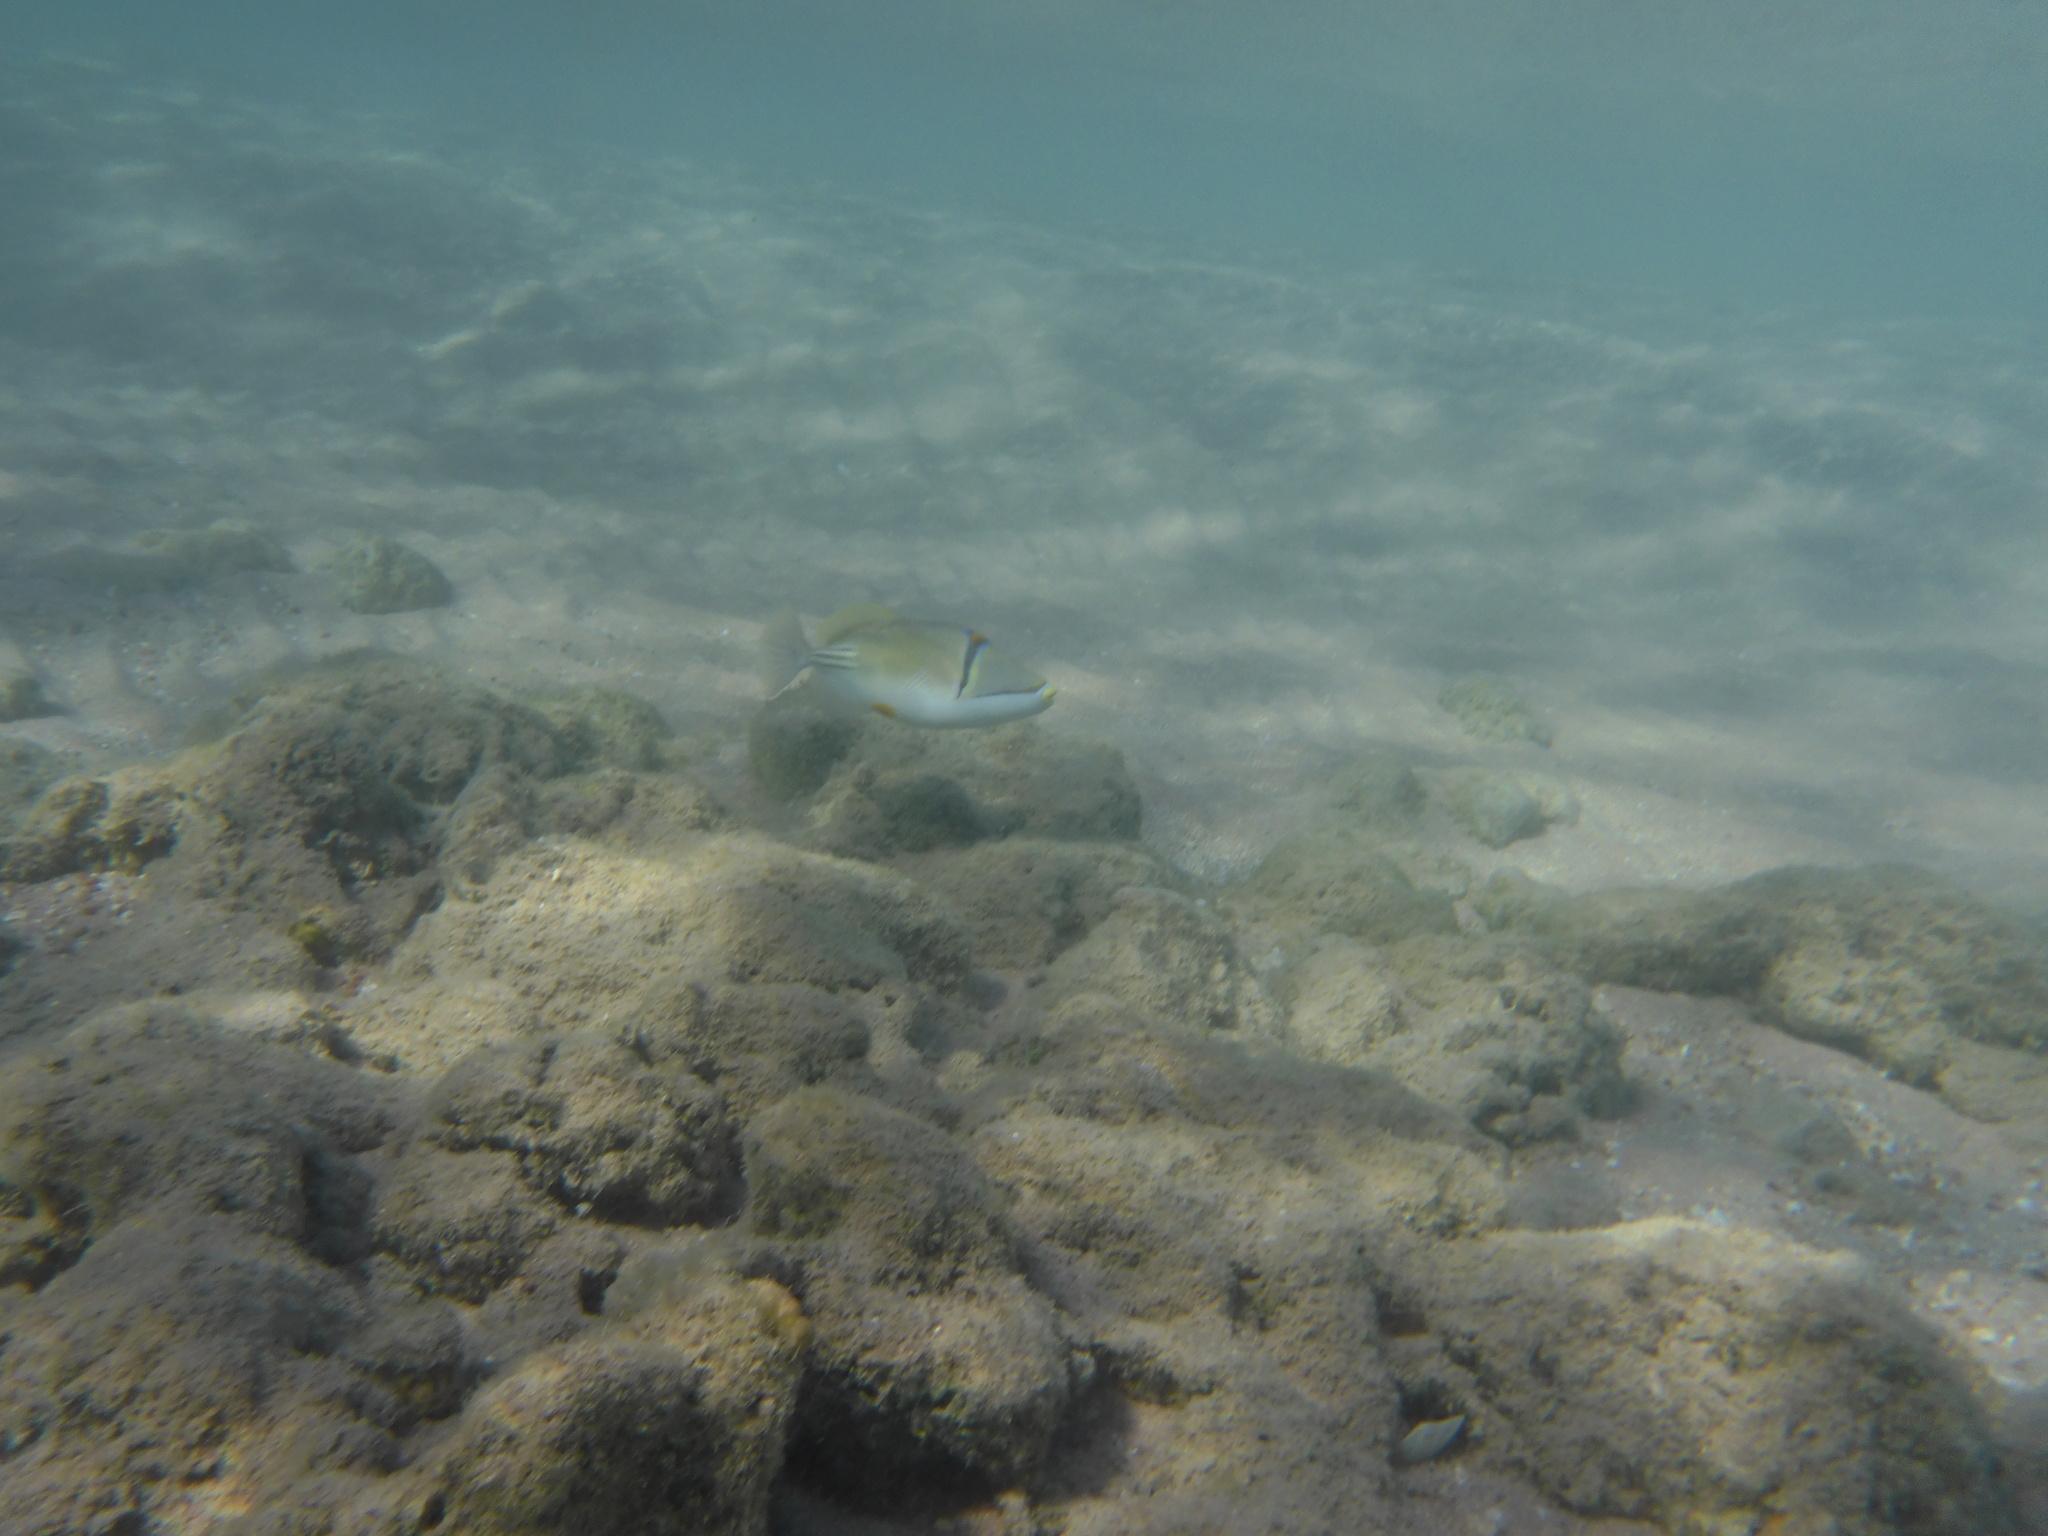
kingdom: Animalia
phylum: Chordata
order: Tetraodontiformes
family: Balistidae
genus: Rhinecanthus
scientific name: Rhinecanthus assasi
